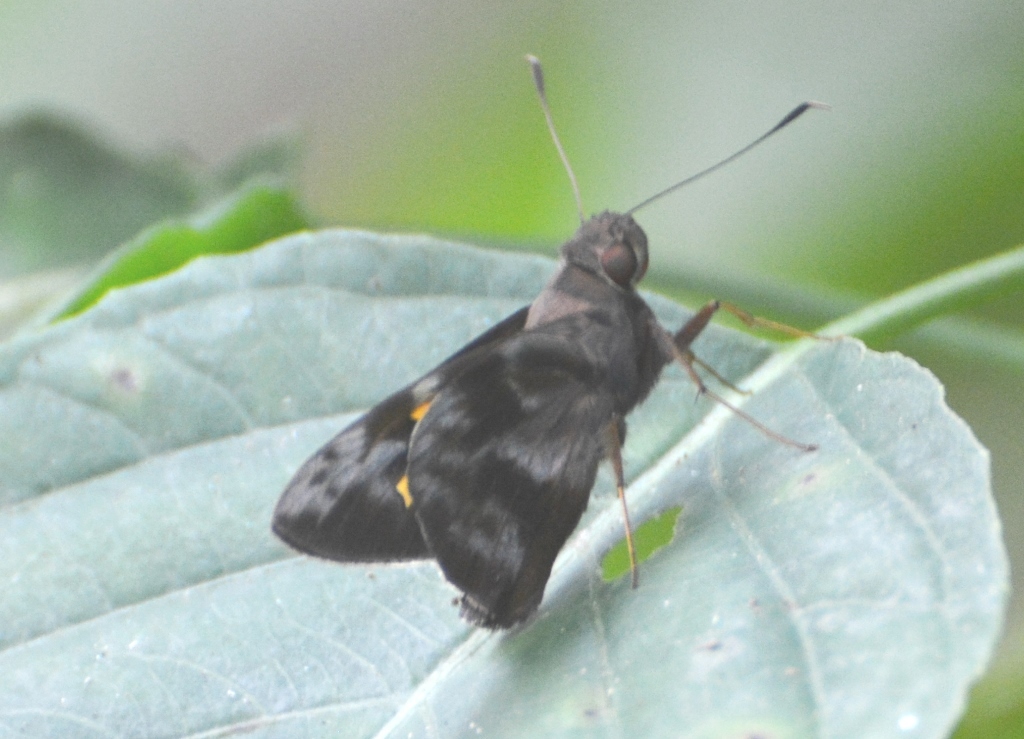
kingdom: Animalia
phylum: Arthropoda
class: Insecta
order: Lepidoptera
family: Hesperiidae
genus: Perichares
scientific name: Perichares philetes
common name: Green-backed ruby-eye
